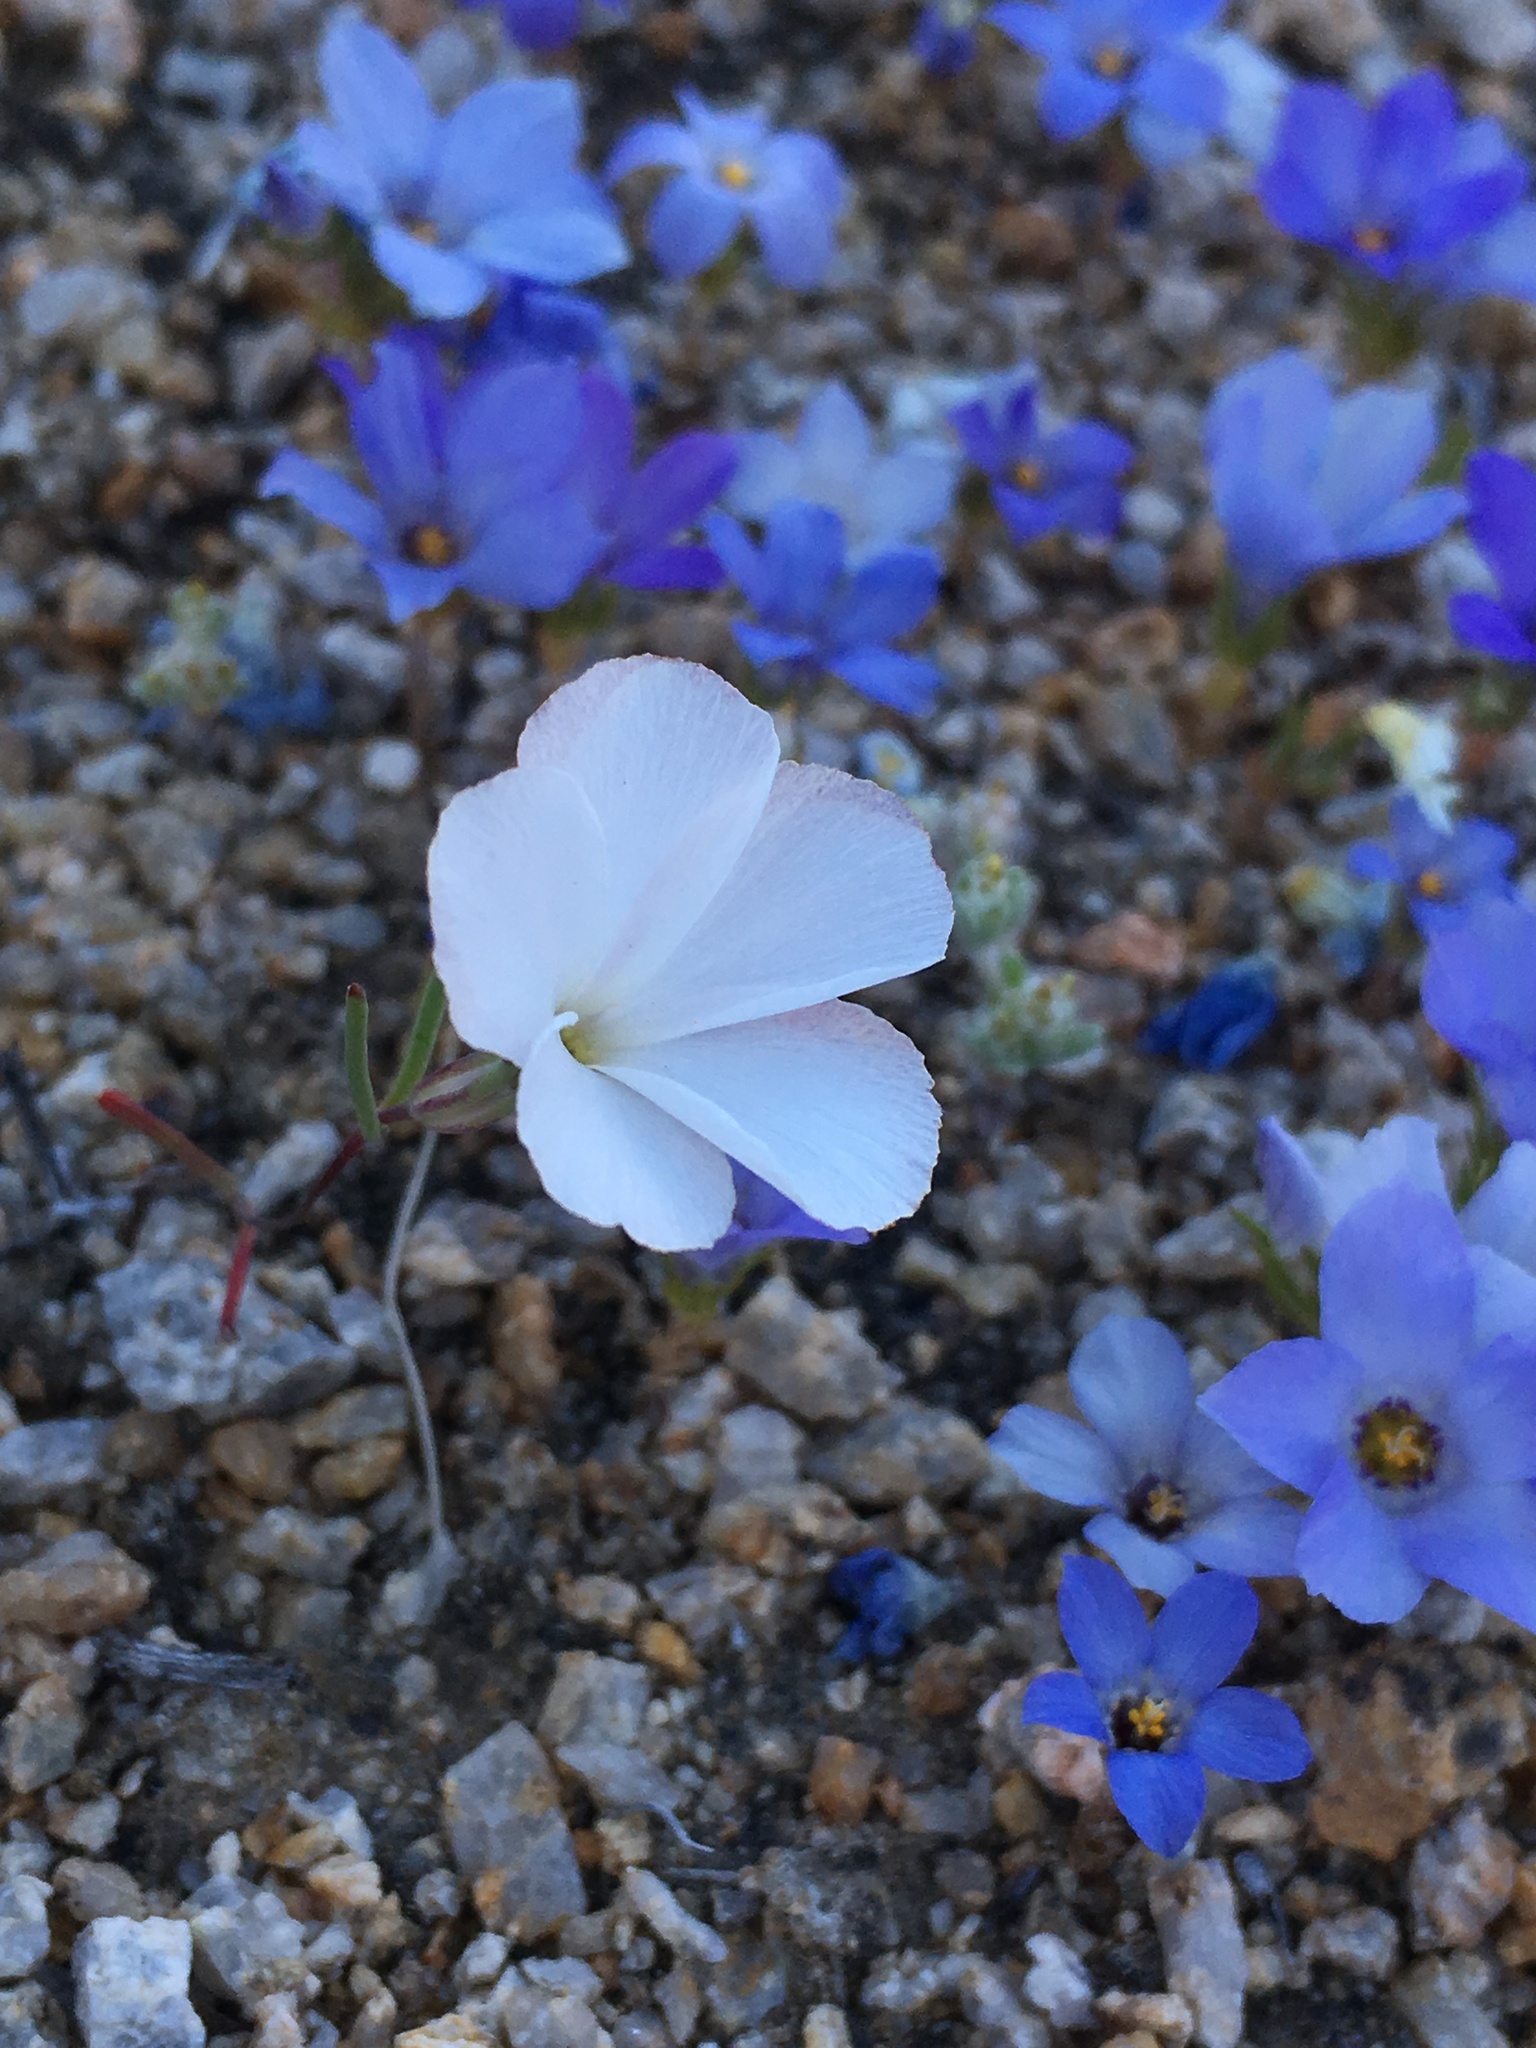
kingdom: Plantae
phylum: Tracheophyta
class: Magnoliopsida
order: Ericales
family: Polemoniaceae
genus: Linanthus
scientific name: Linanthus dichotomus
